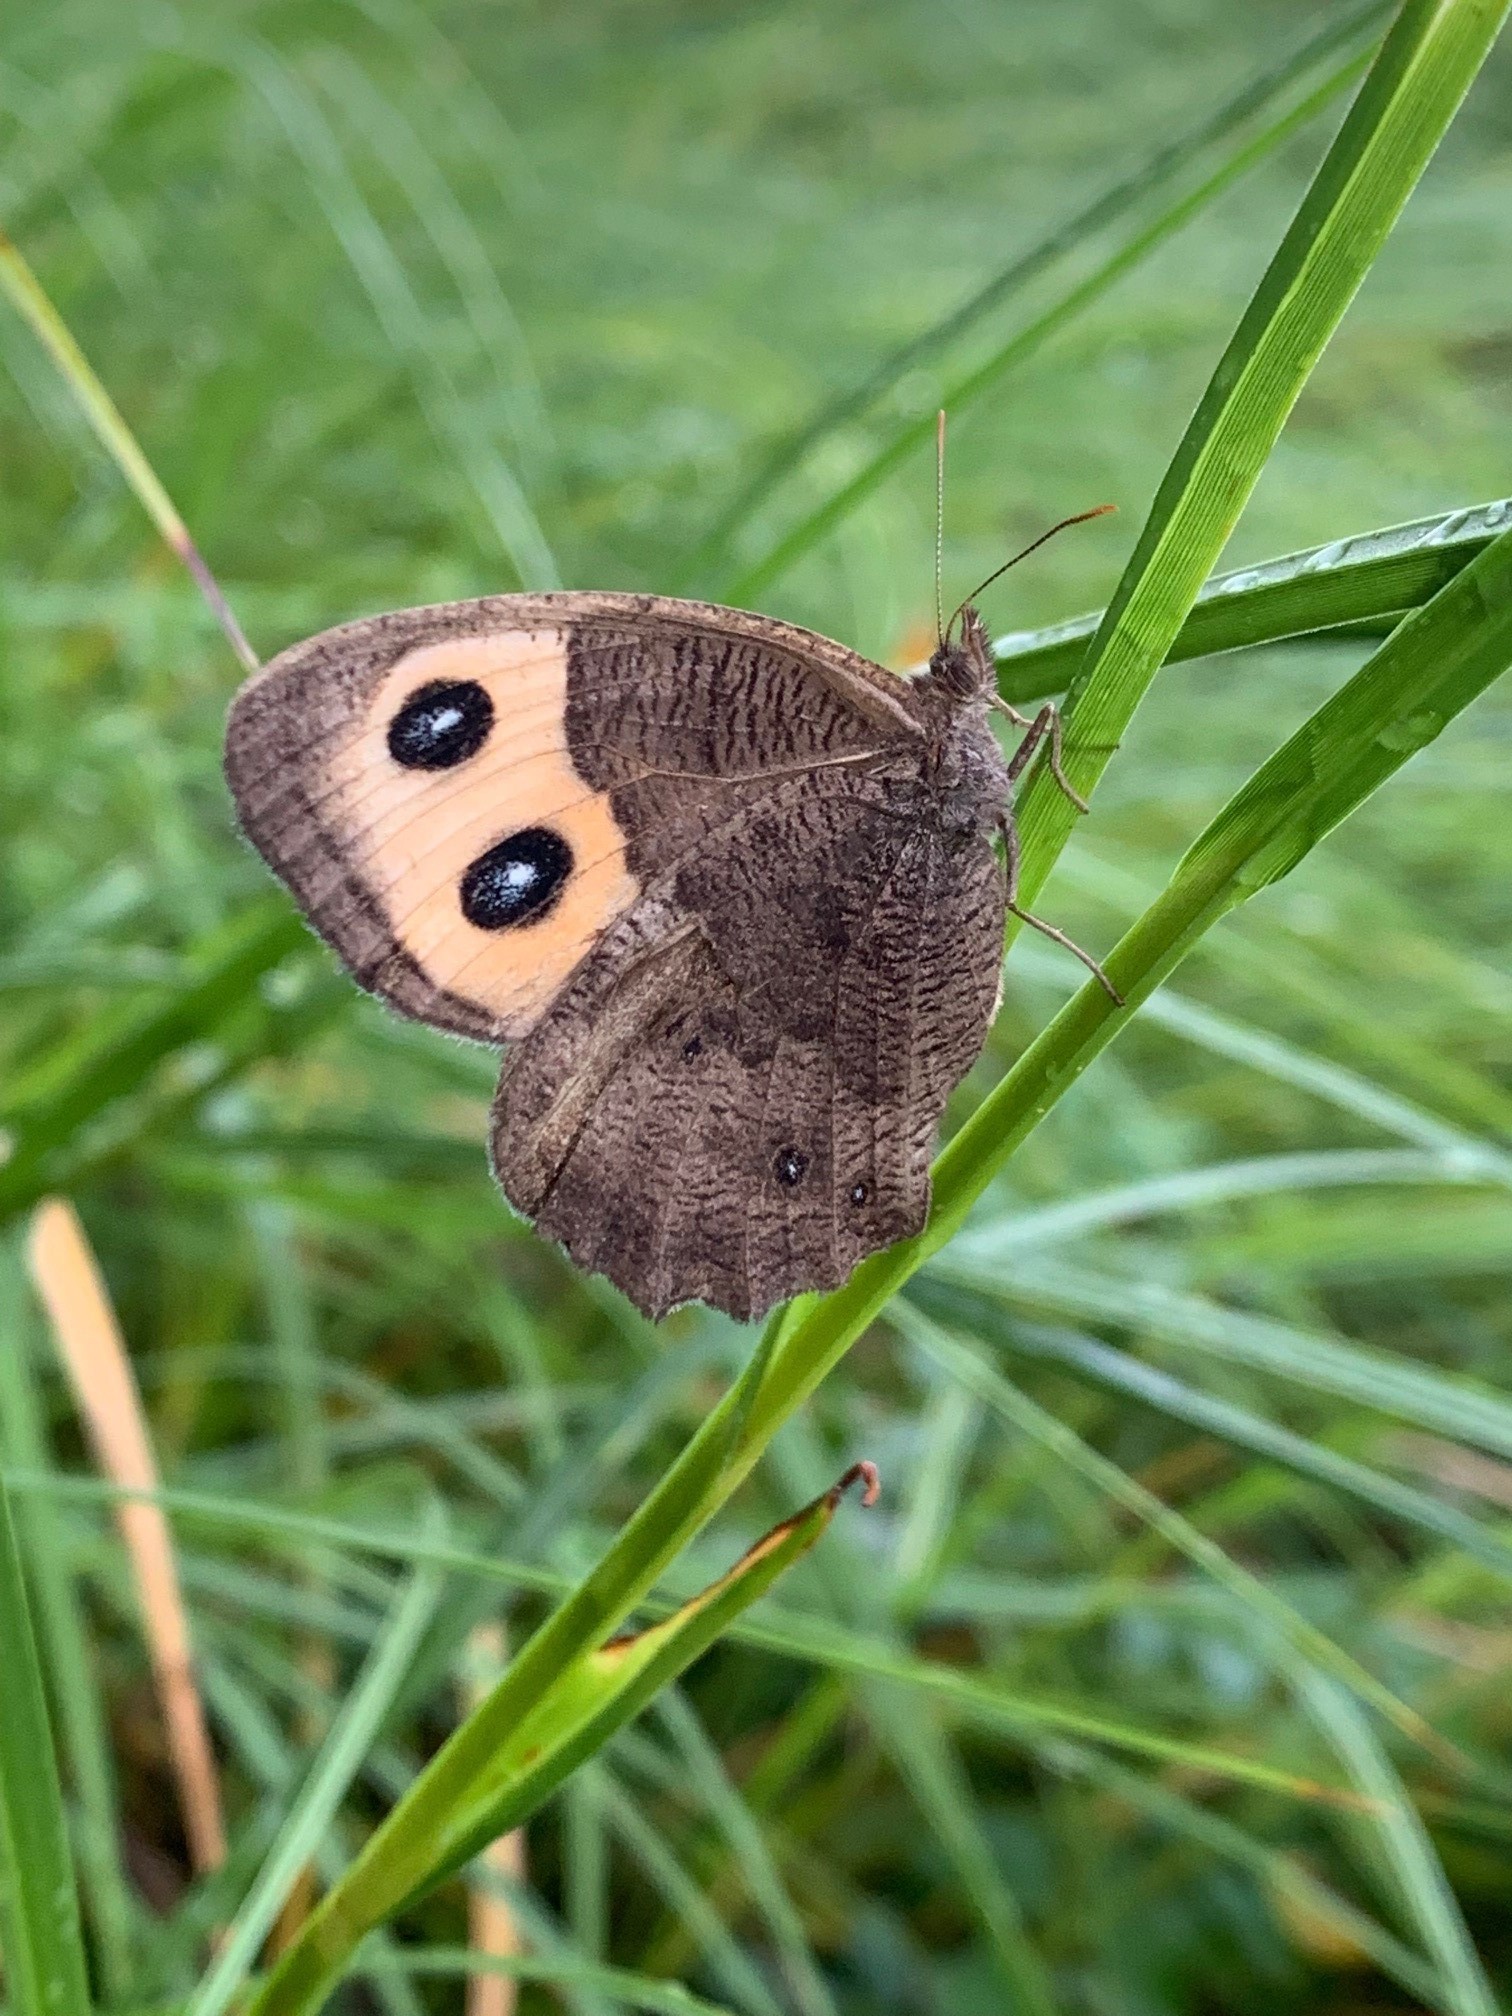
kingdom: Animalia
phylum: Arthropoda
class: Insecta
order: Lepidoptera
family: Nymphalidae
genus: Cercyonis
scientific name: Cercyonis pegala
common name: Common wood-nymph
